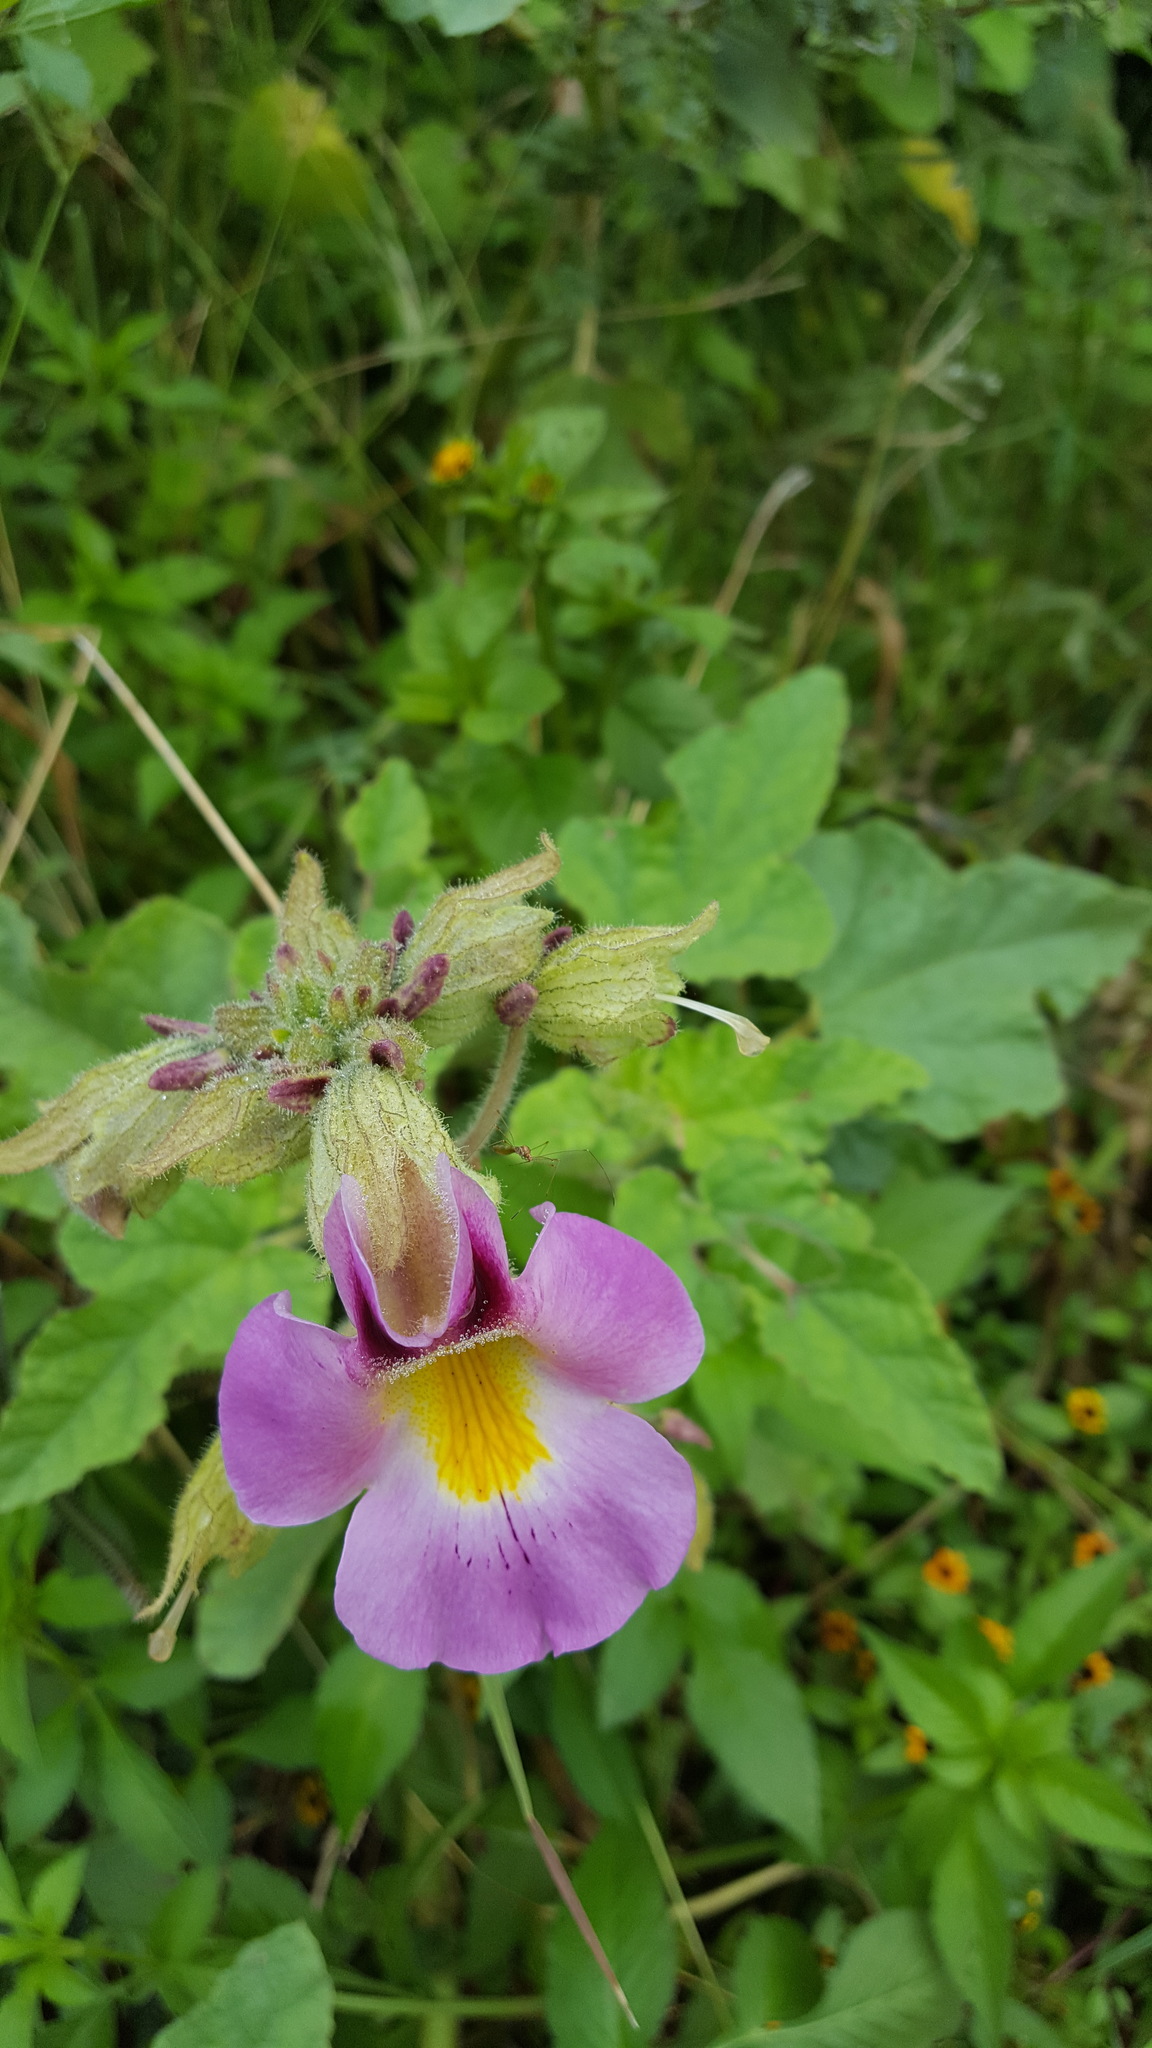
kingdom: Plantae
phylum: Tracheophyta
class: Magnoliopsida
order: Lamiales
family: Martyniaceae
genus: Proboscidea
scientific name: Proboscidea triloba
